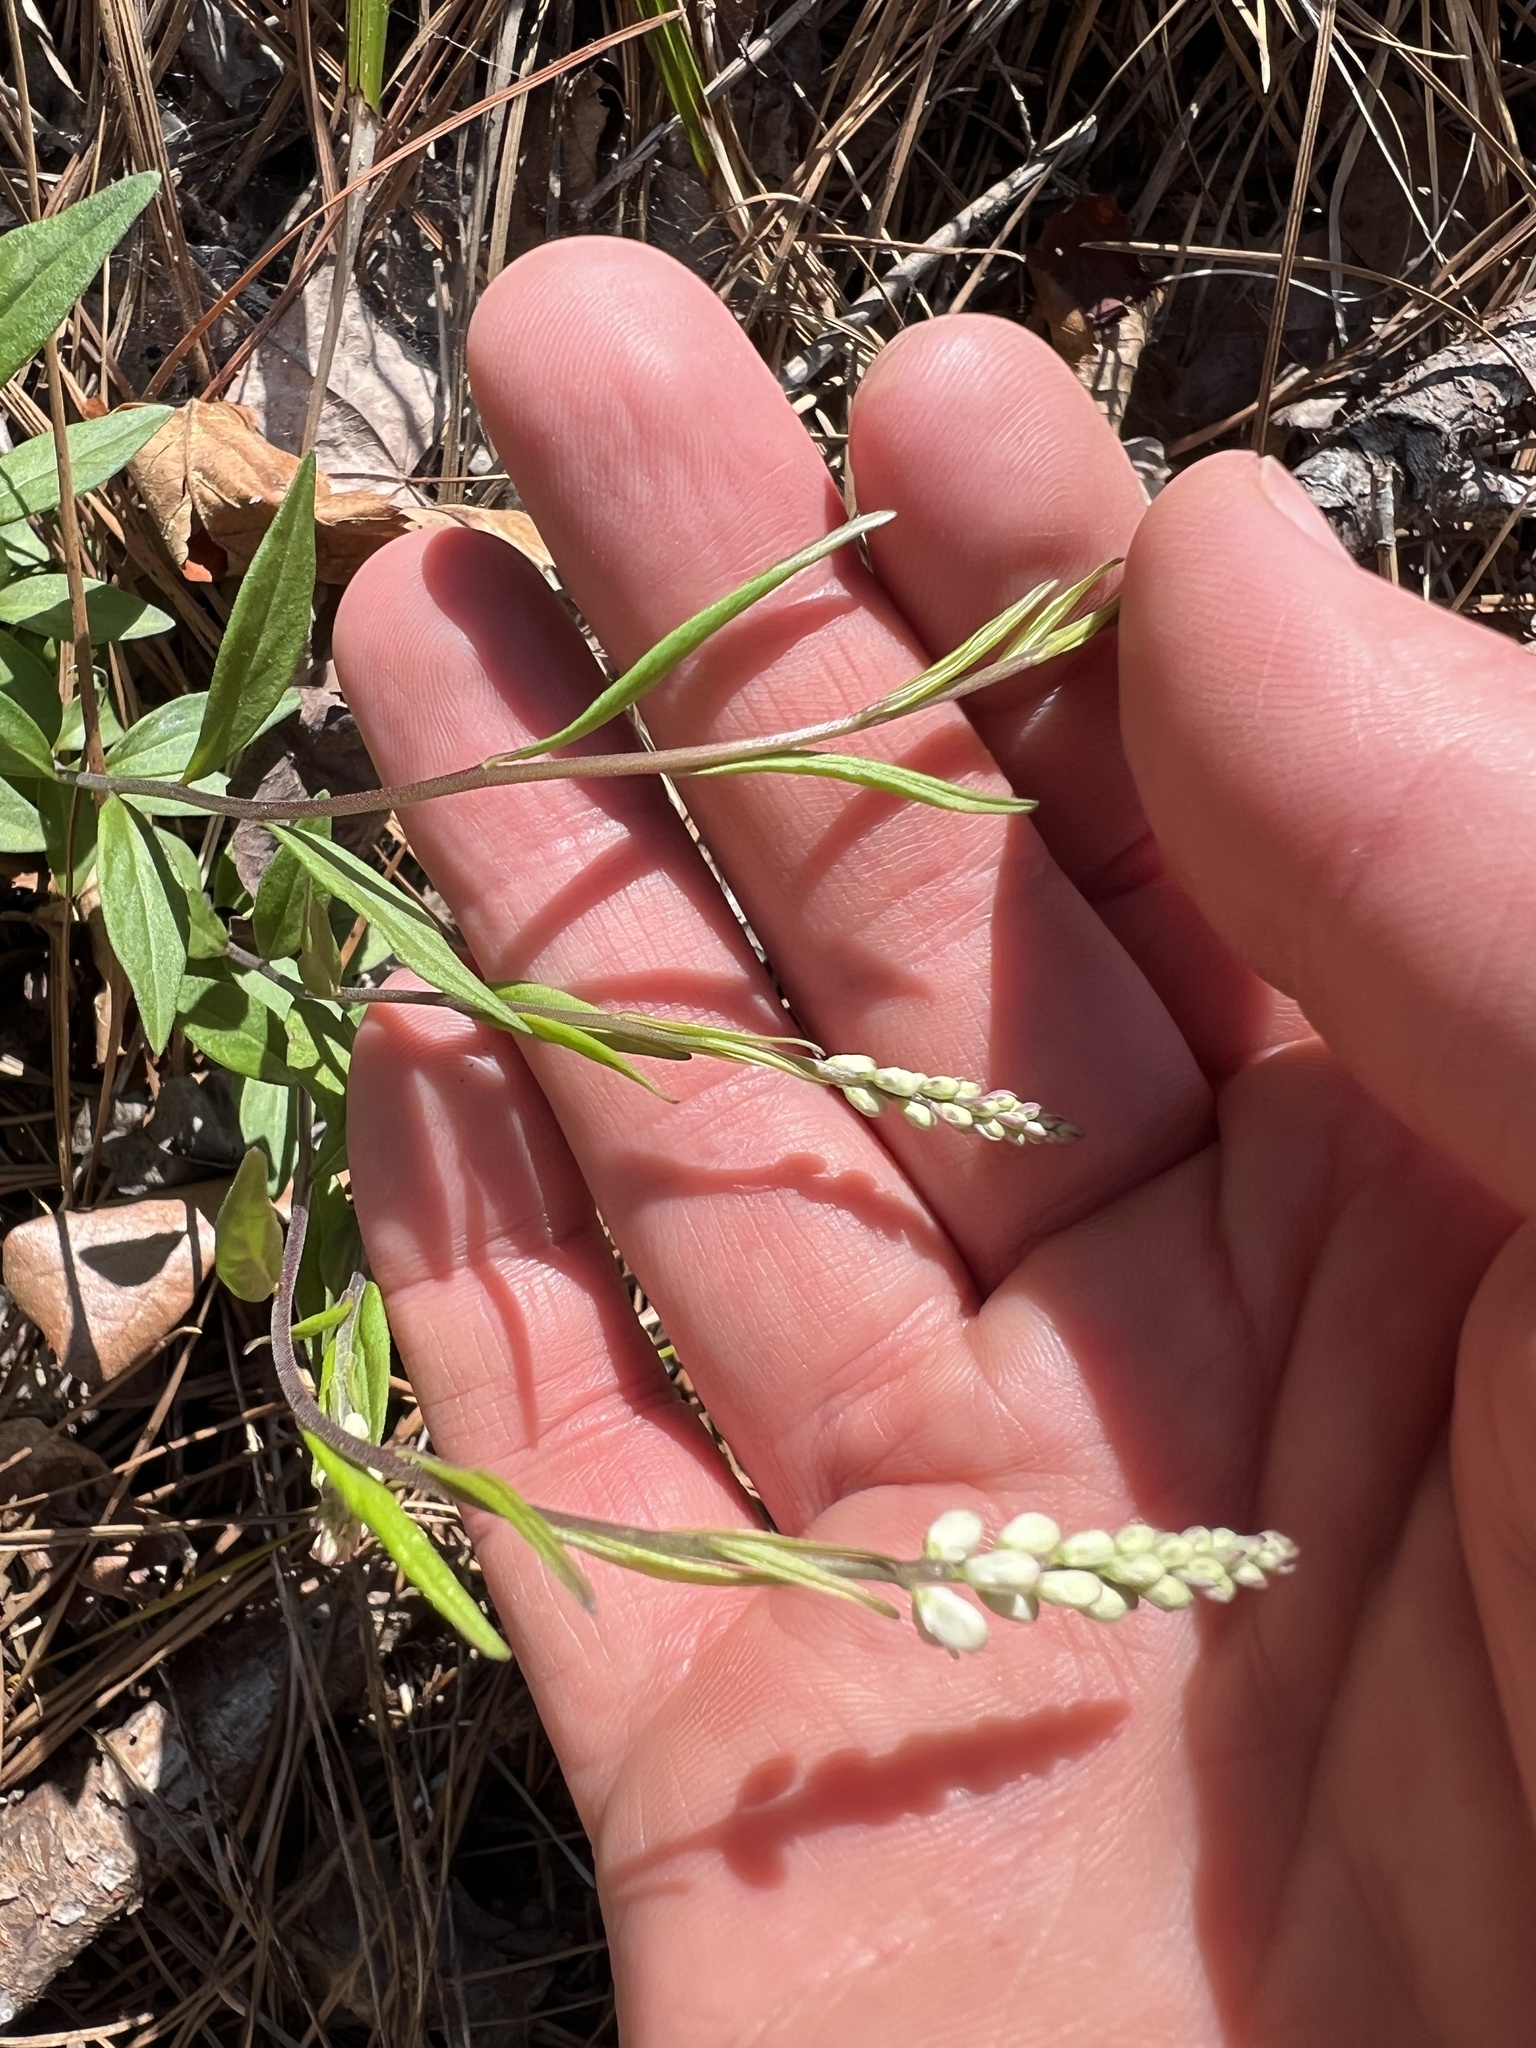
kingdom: Plantae
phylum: Tracheophyta
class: Magnoliopsida
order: Fabales
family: Polygalaceae
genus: Polygala
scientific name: Polygala senega
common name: Seneca snakeroot
